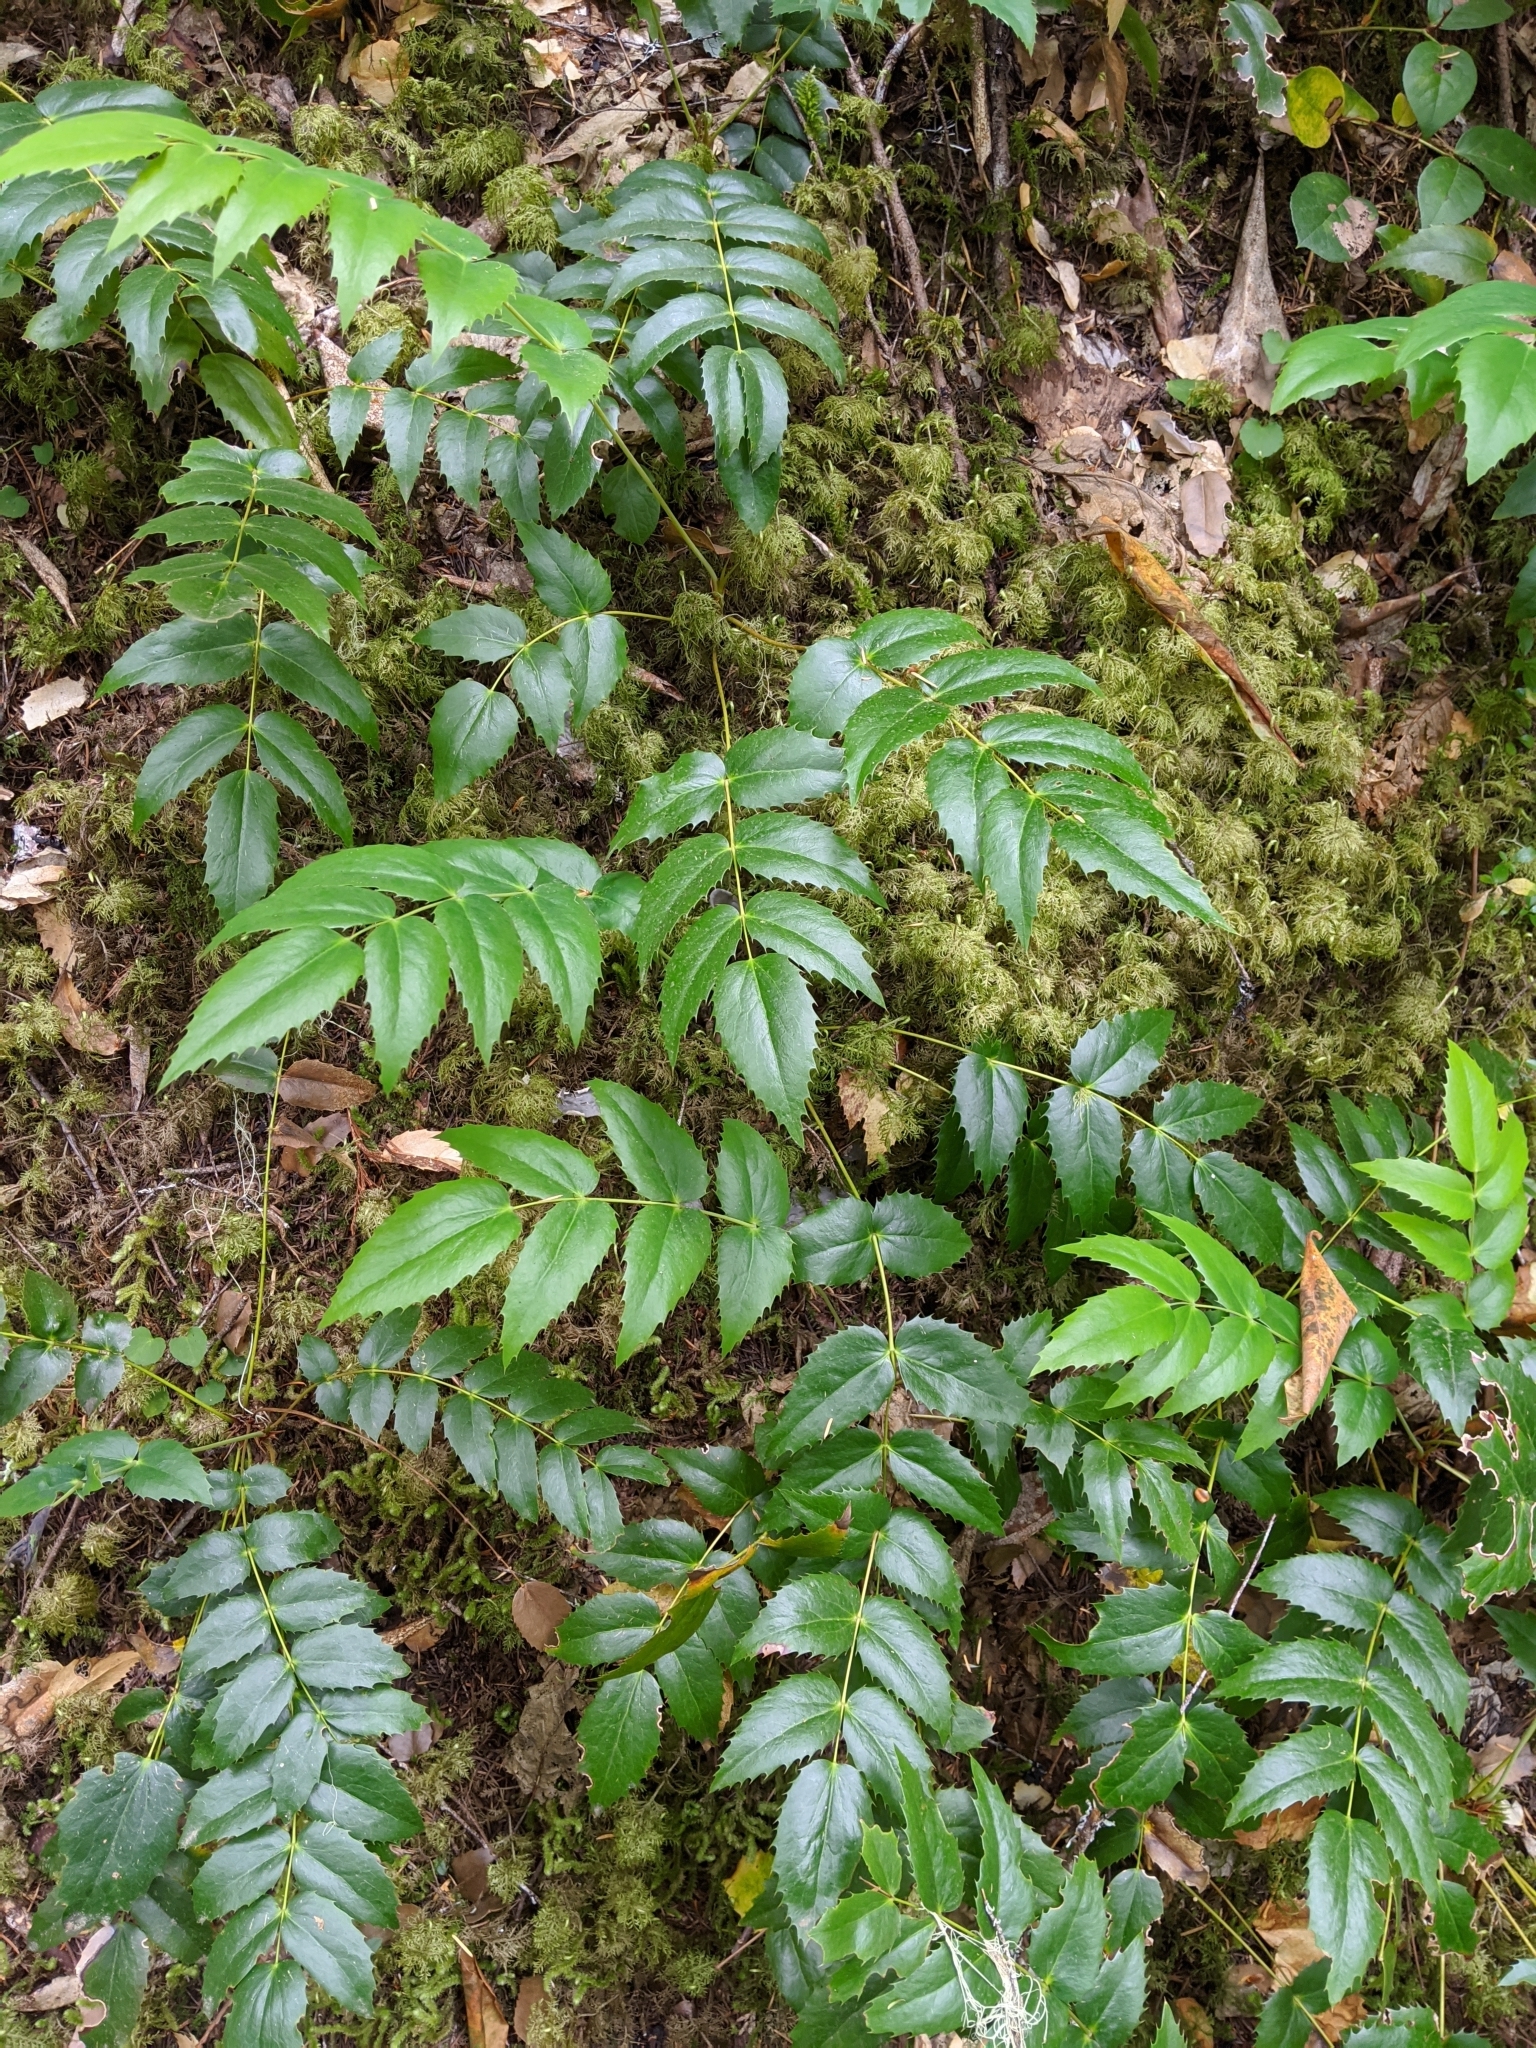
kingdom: Plantae
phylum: Tracheophyta
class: Magnoliopsida
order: Ranunculales
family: Berberidaceae
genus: Mahonia
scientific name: Mahonia nervosa
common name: Cascade oregon-grape
